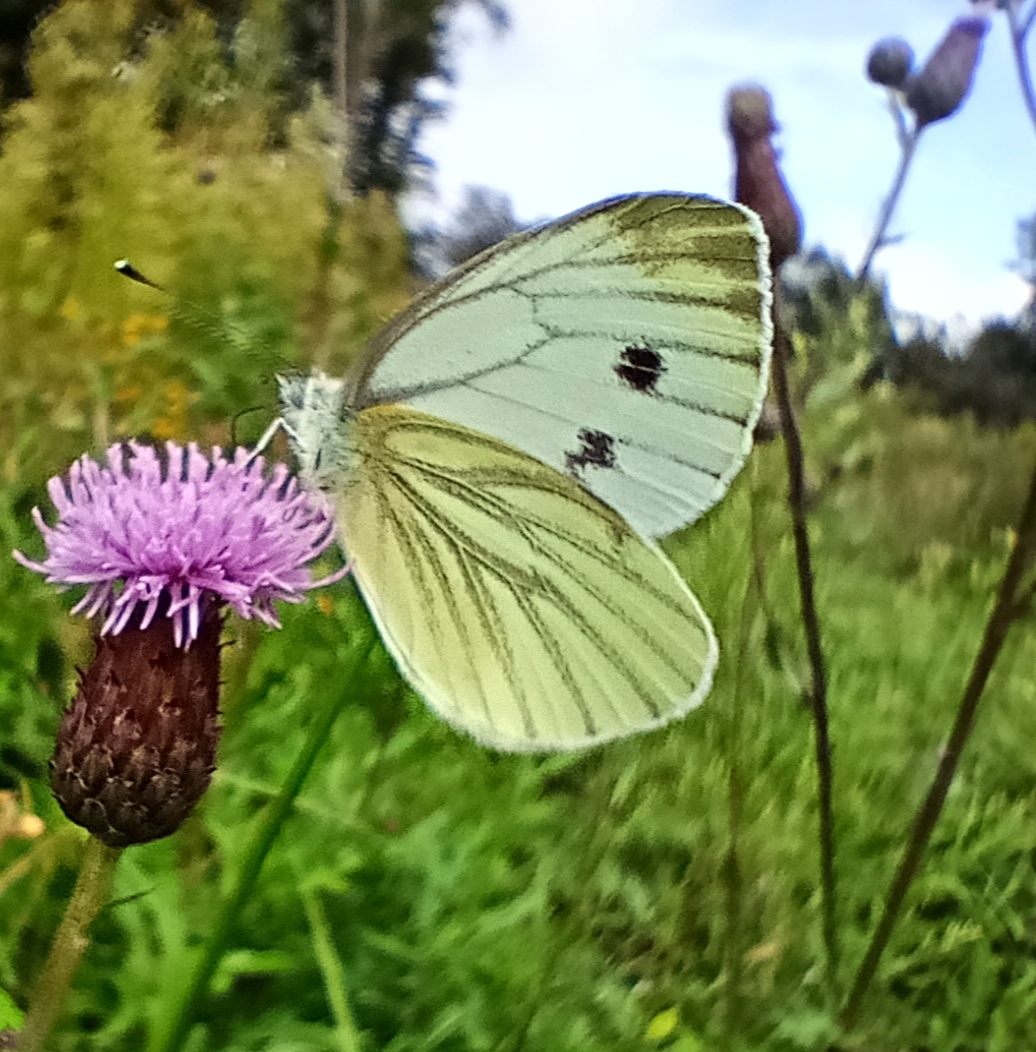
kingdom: Animalia
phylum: Arthropoda
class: Insecta
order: Lepidoptera
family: Pieridae
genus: Pieris
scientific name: Pieris napi
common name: Green-veined white
